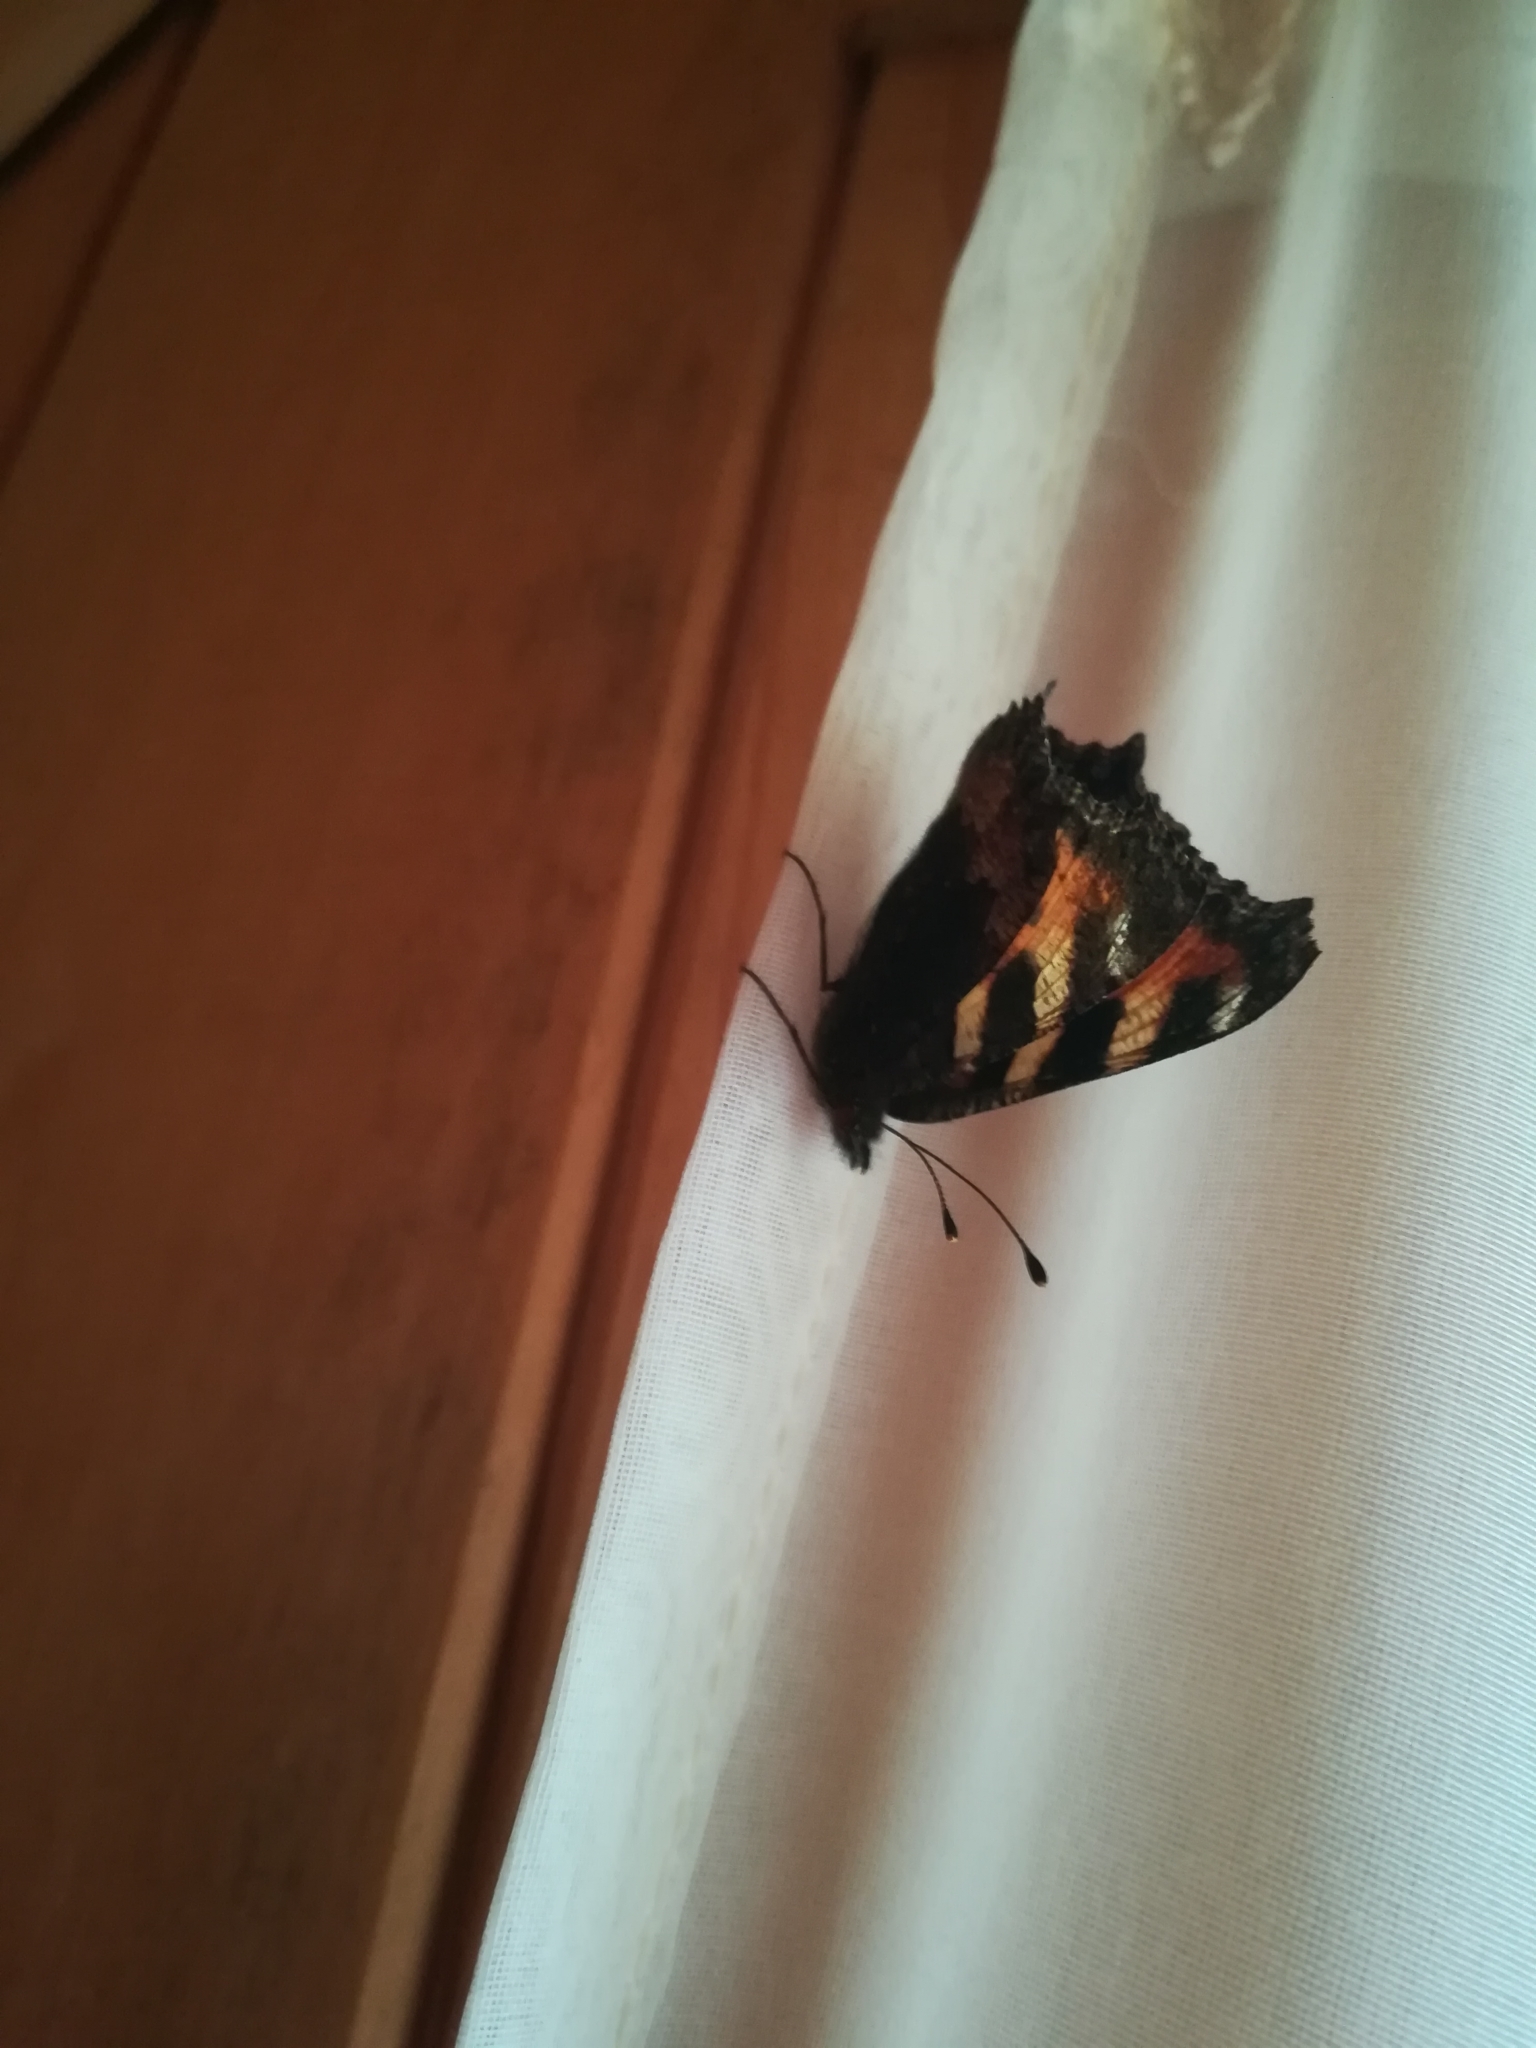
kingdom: Animalia
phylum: Arthropoda
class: Insecta
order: Lepidoptera
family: Nymphalidae
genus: Aglais
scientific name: Aglais urticae
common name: Small tortoiseshell
